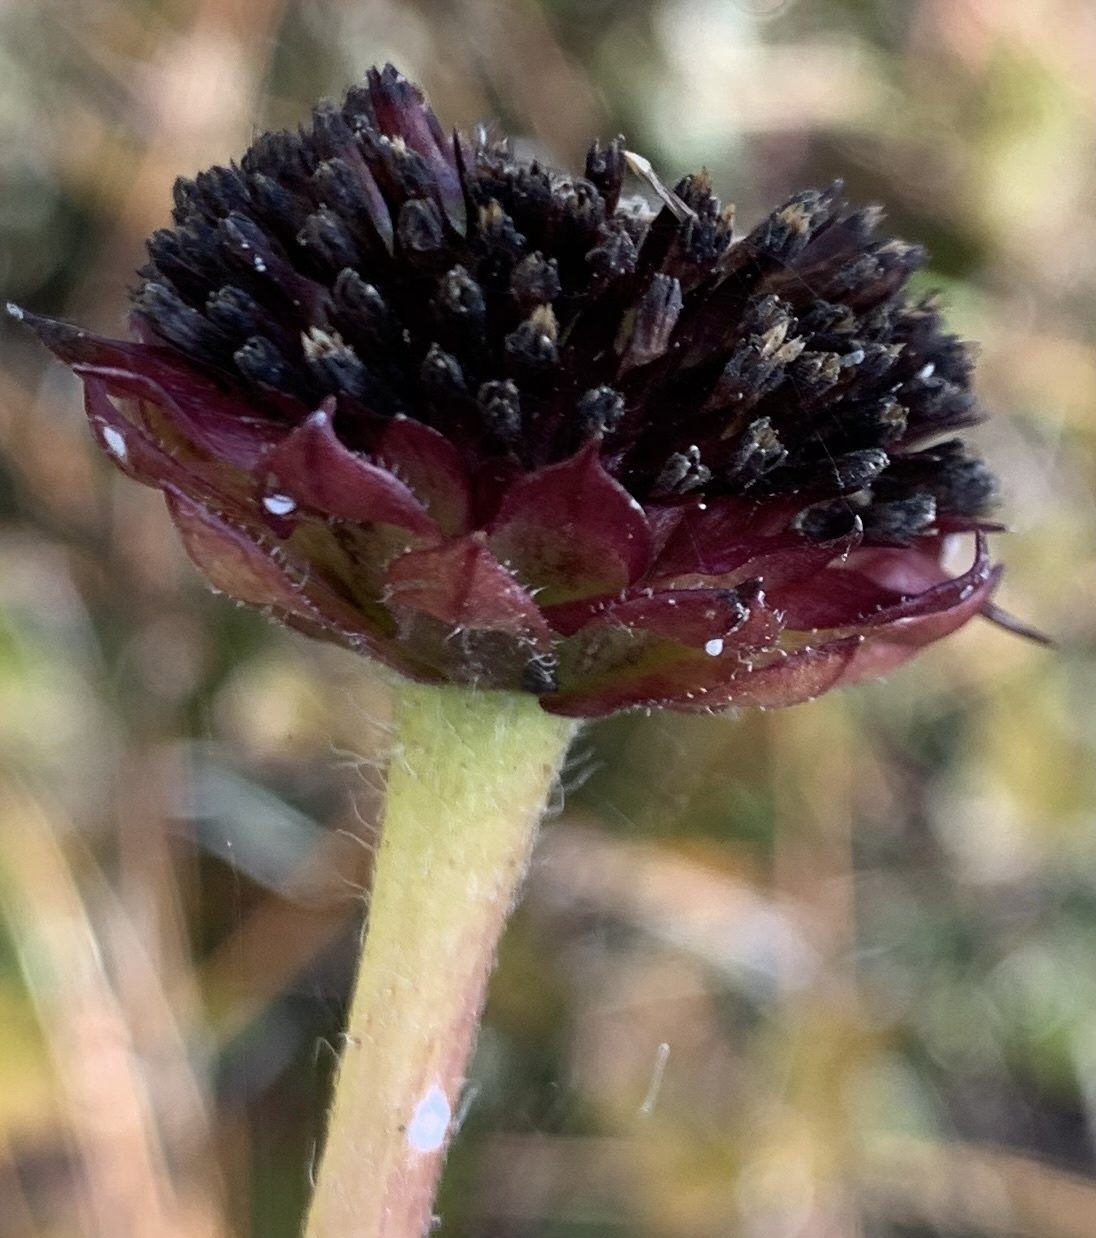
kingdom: Plantae
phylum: Tracheophyta
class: Magnoliopsida
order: Asterales
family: Asteraceae
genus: Helianthus
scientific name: Helianthus radula
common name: Pineland sunflower
